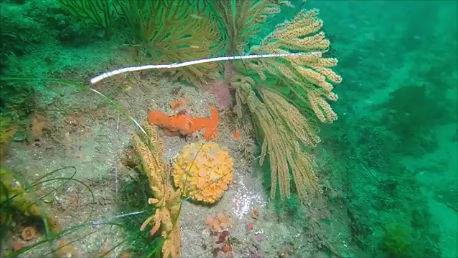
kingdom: Animalia
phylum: Porifera
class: Demospongiae
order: Tethyida
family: Tethyidae
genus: Tethya
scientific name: Tethya californiana
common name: Orange rough ball horny sponge
